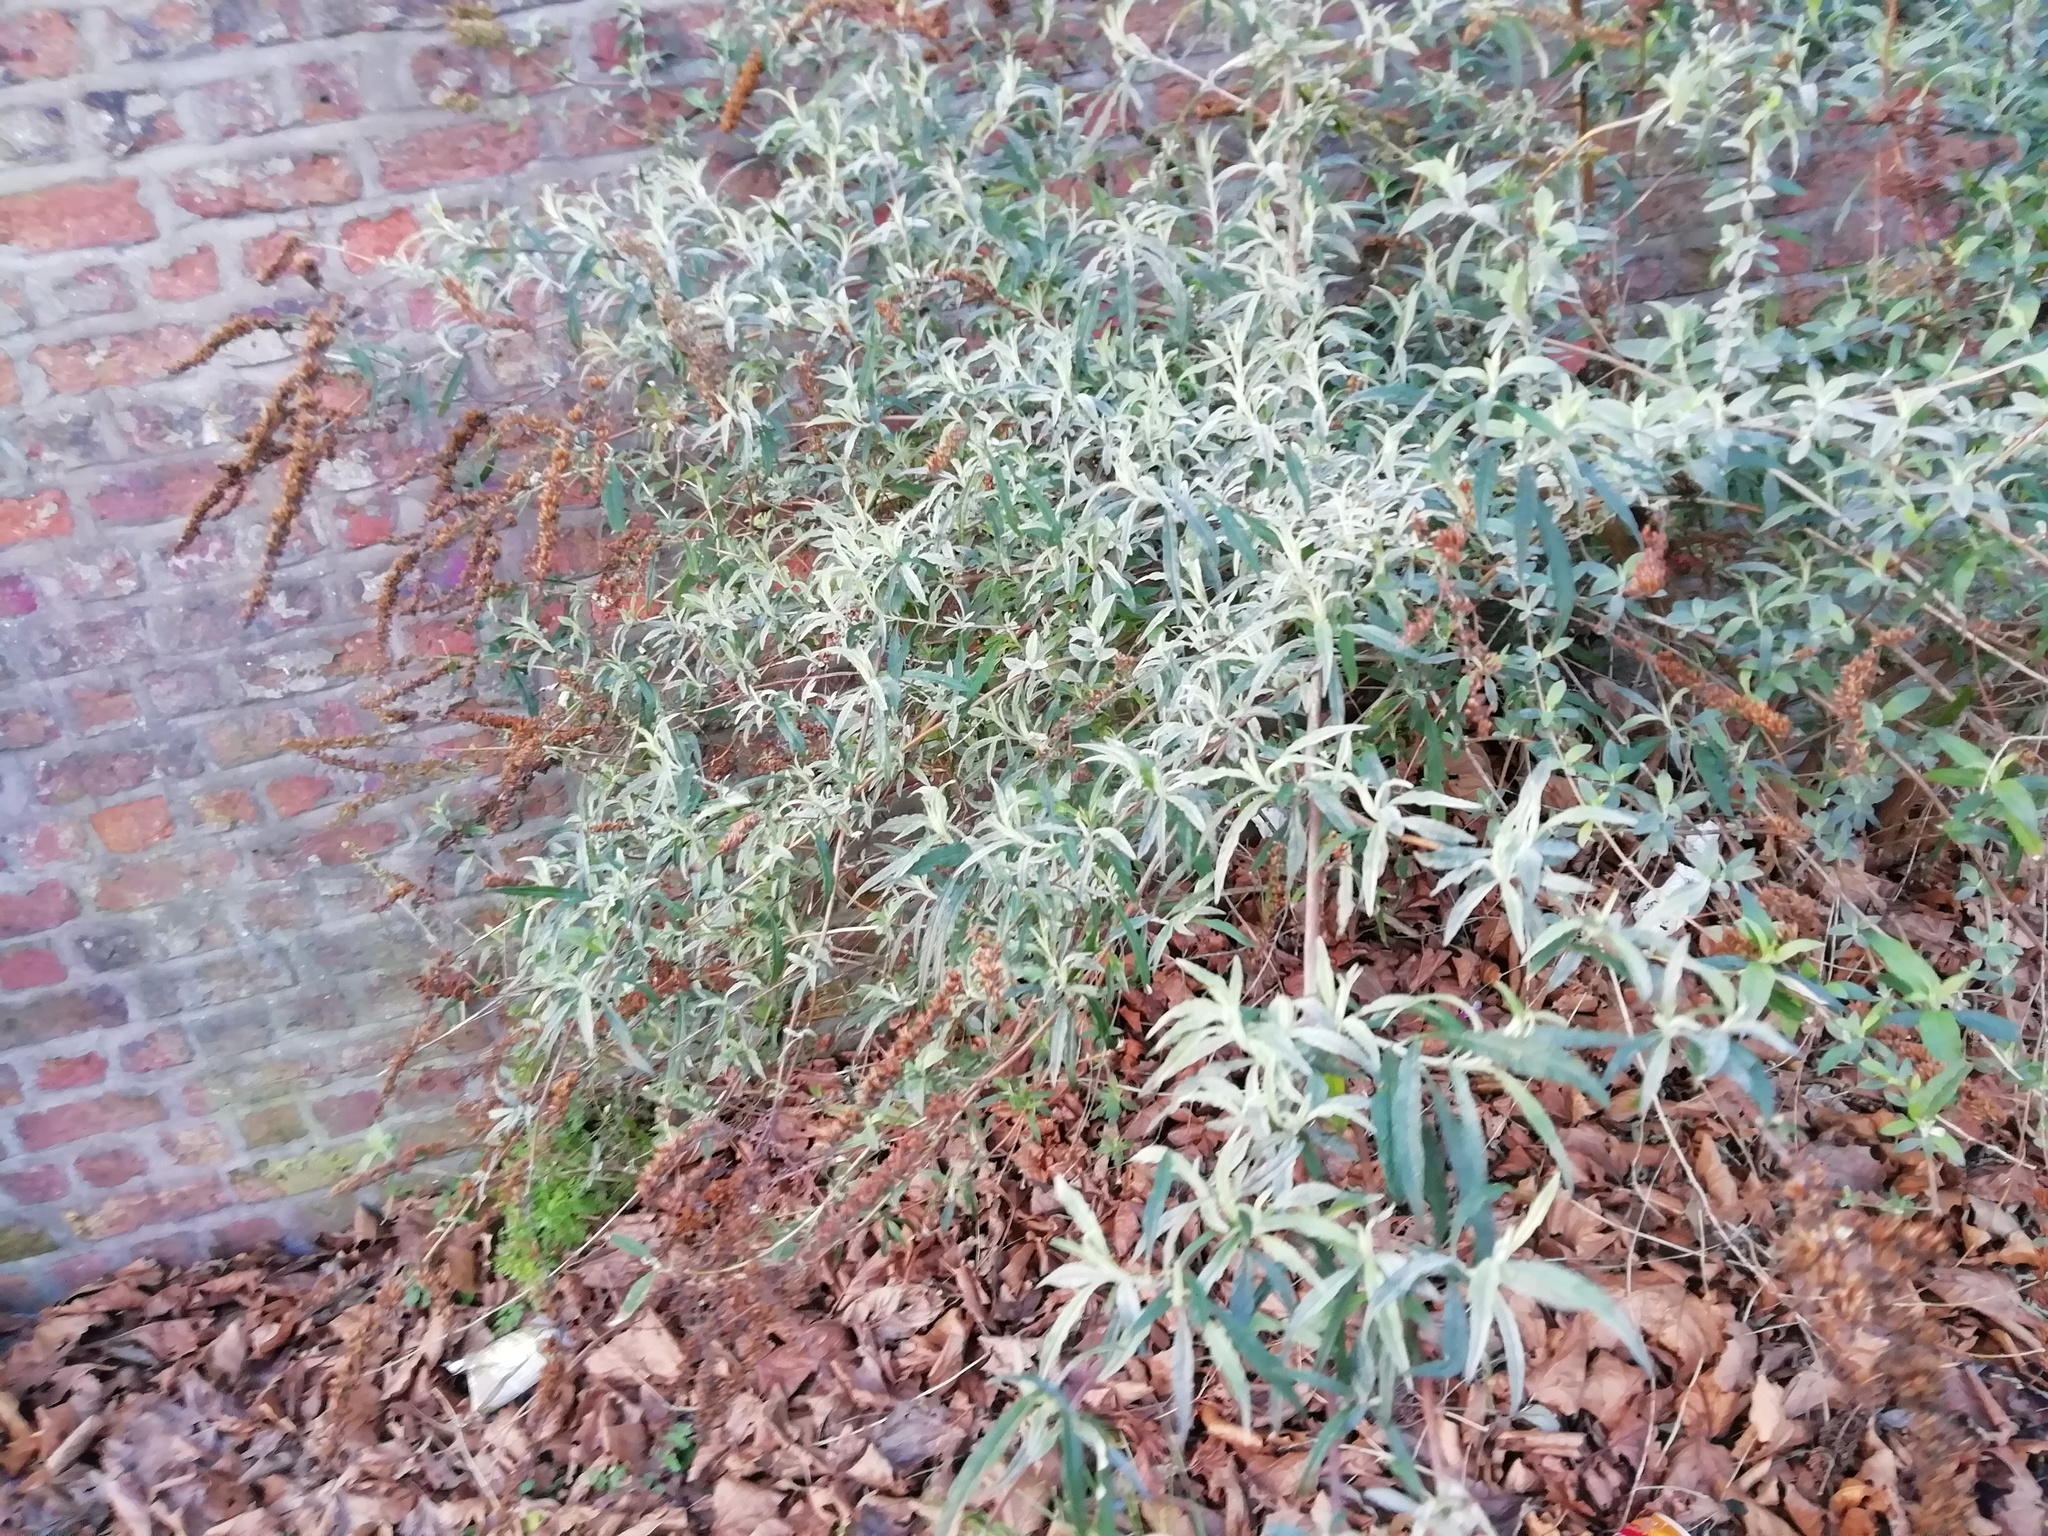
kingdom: Plantae
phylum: Tracheophyta
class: Magnoliopsida
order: Lamiales
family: Scrophulariaceae
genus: Buddleja
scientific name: Buddleja davidii
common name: Butterfly-bush
